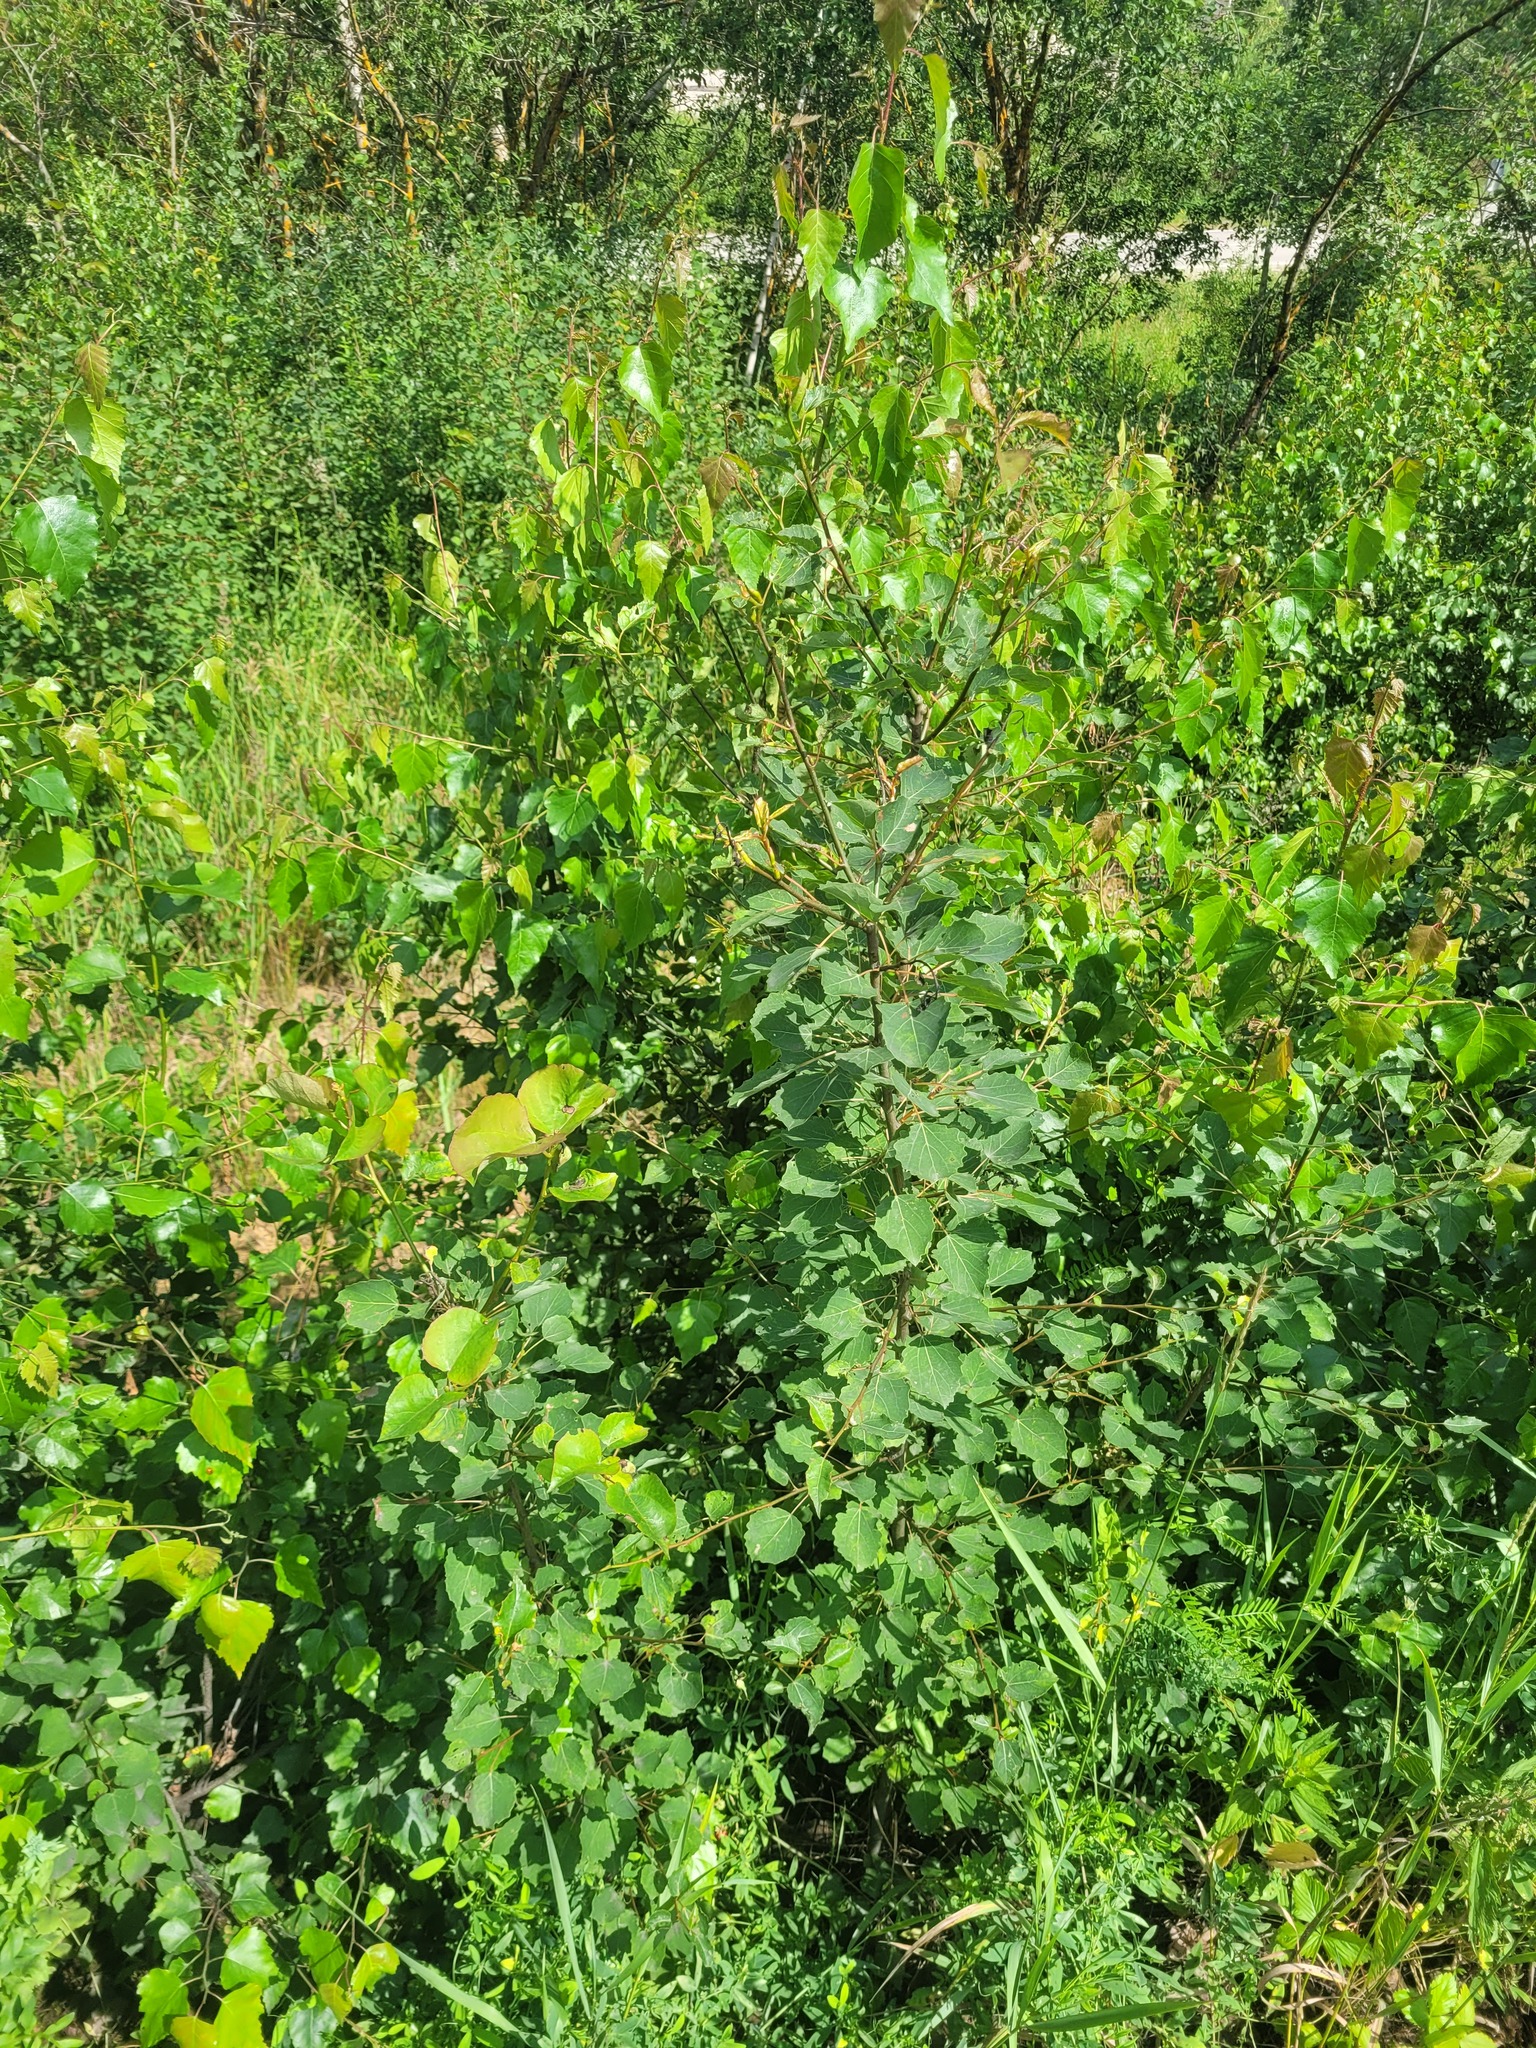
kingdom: Plantae
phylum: Tracheophyta
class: Magnoliopsida
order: Malpighiales
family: Salicaceae
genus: Populus
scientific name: Populus tremula
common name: European aspen
